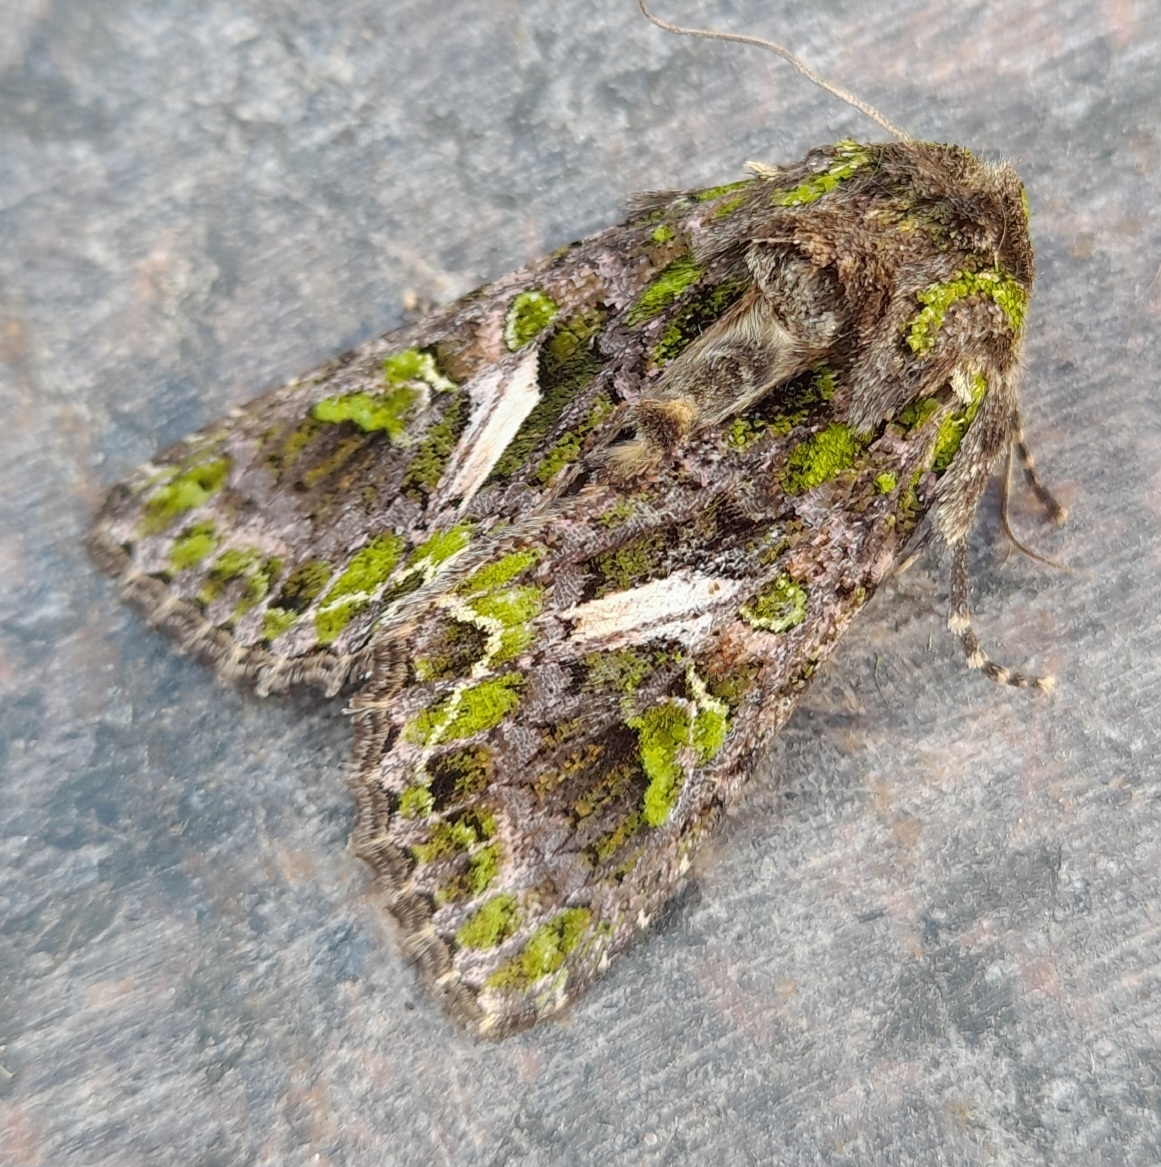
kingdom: Animalia
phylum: Arthropoda
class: Insecta
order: Lepidoptera
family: Noctuidae
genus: Trachea
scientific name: Trachea atriplicis
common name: Orache moth
